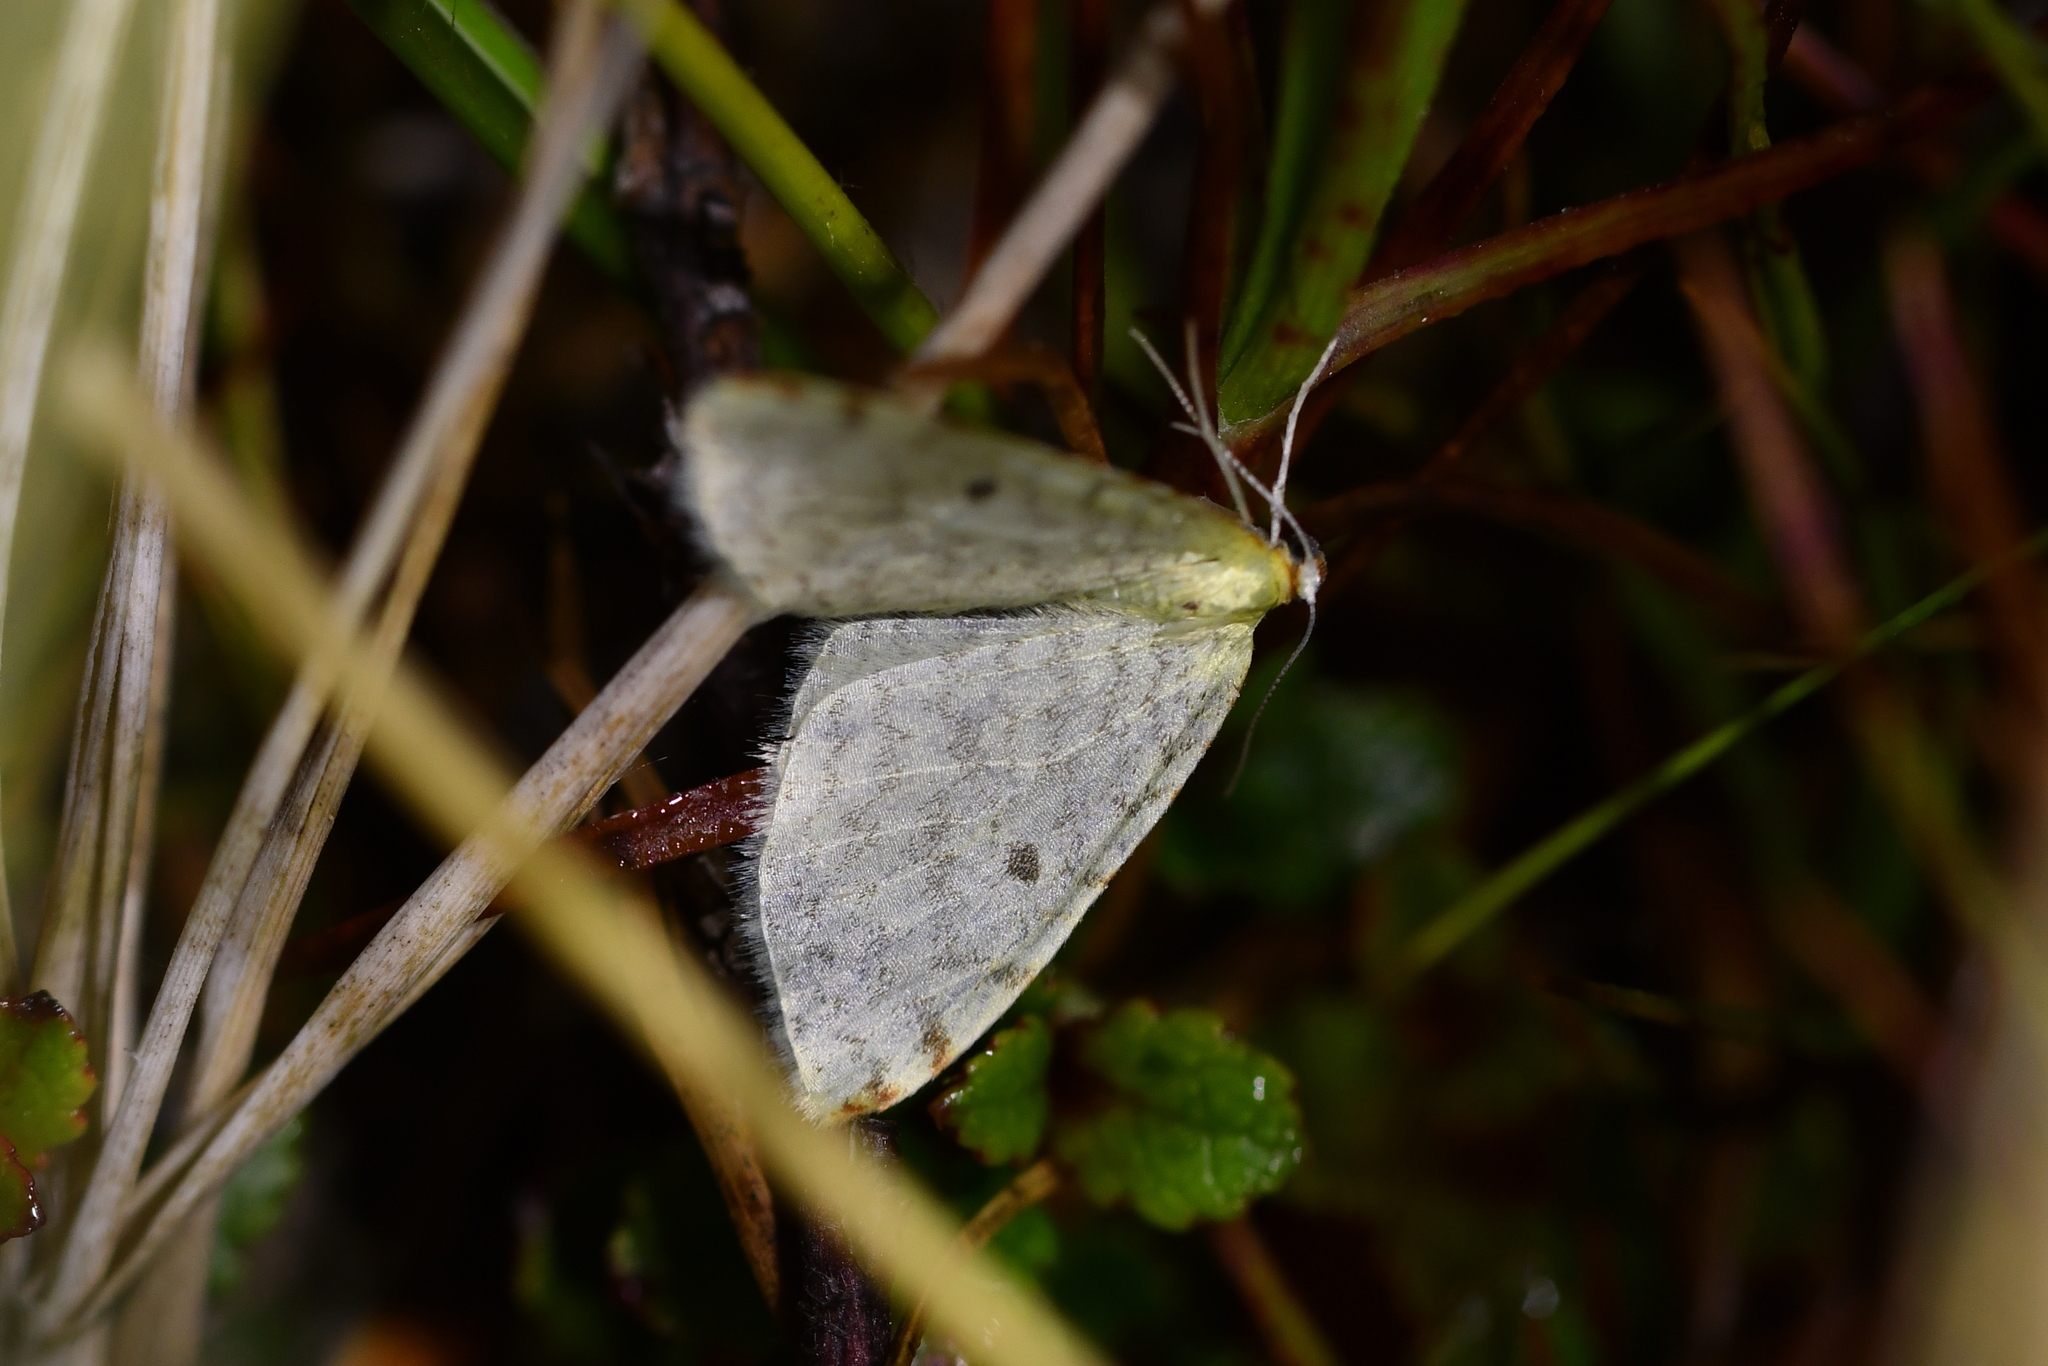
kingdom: Animalia
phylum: Arthropoda
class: Insecta
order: Lepidoptera
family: Geometridae
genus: Epiphryne
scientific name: Epiphryne undosata
